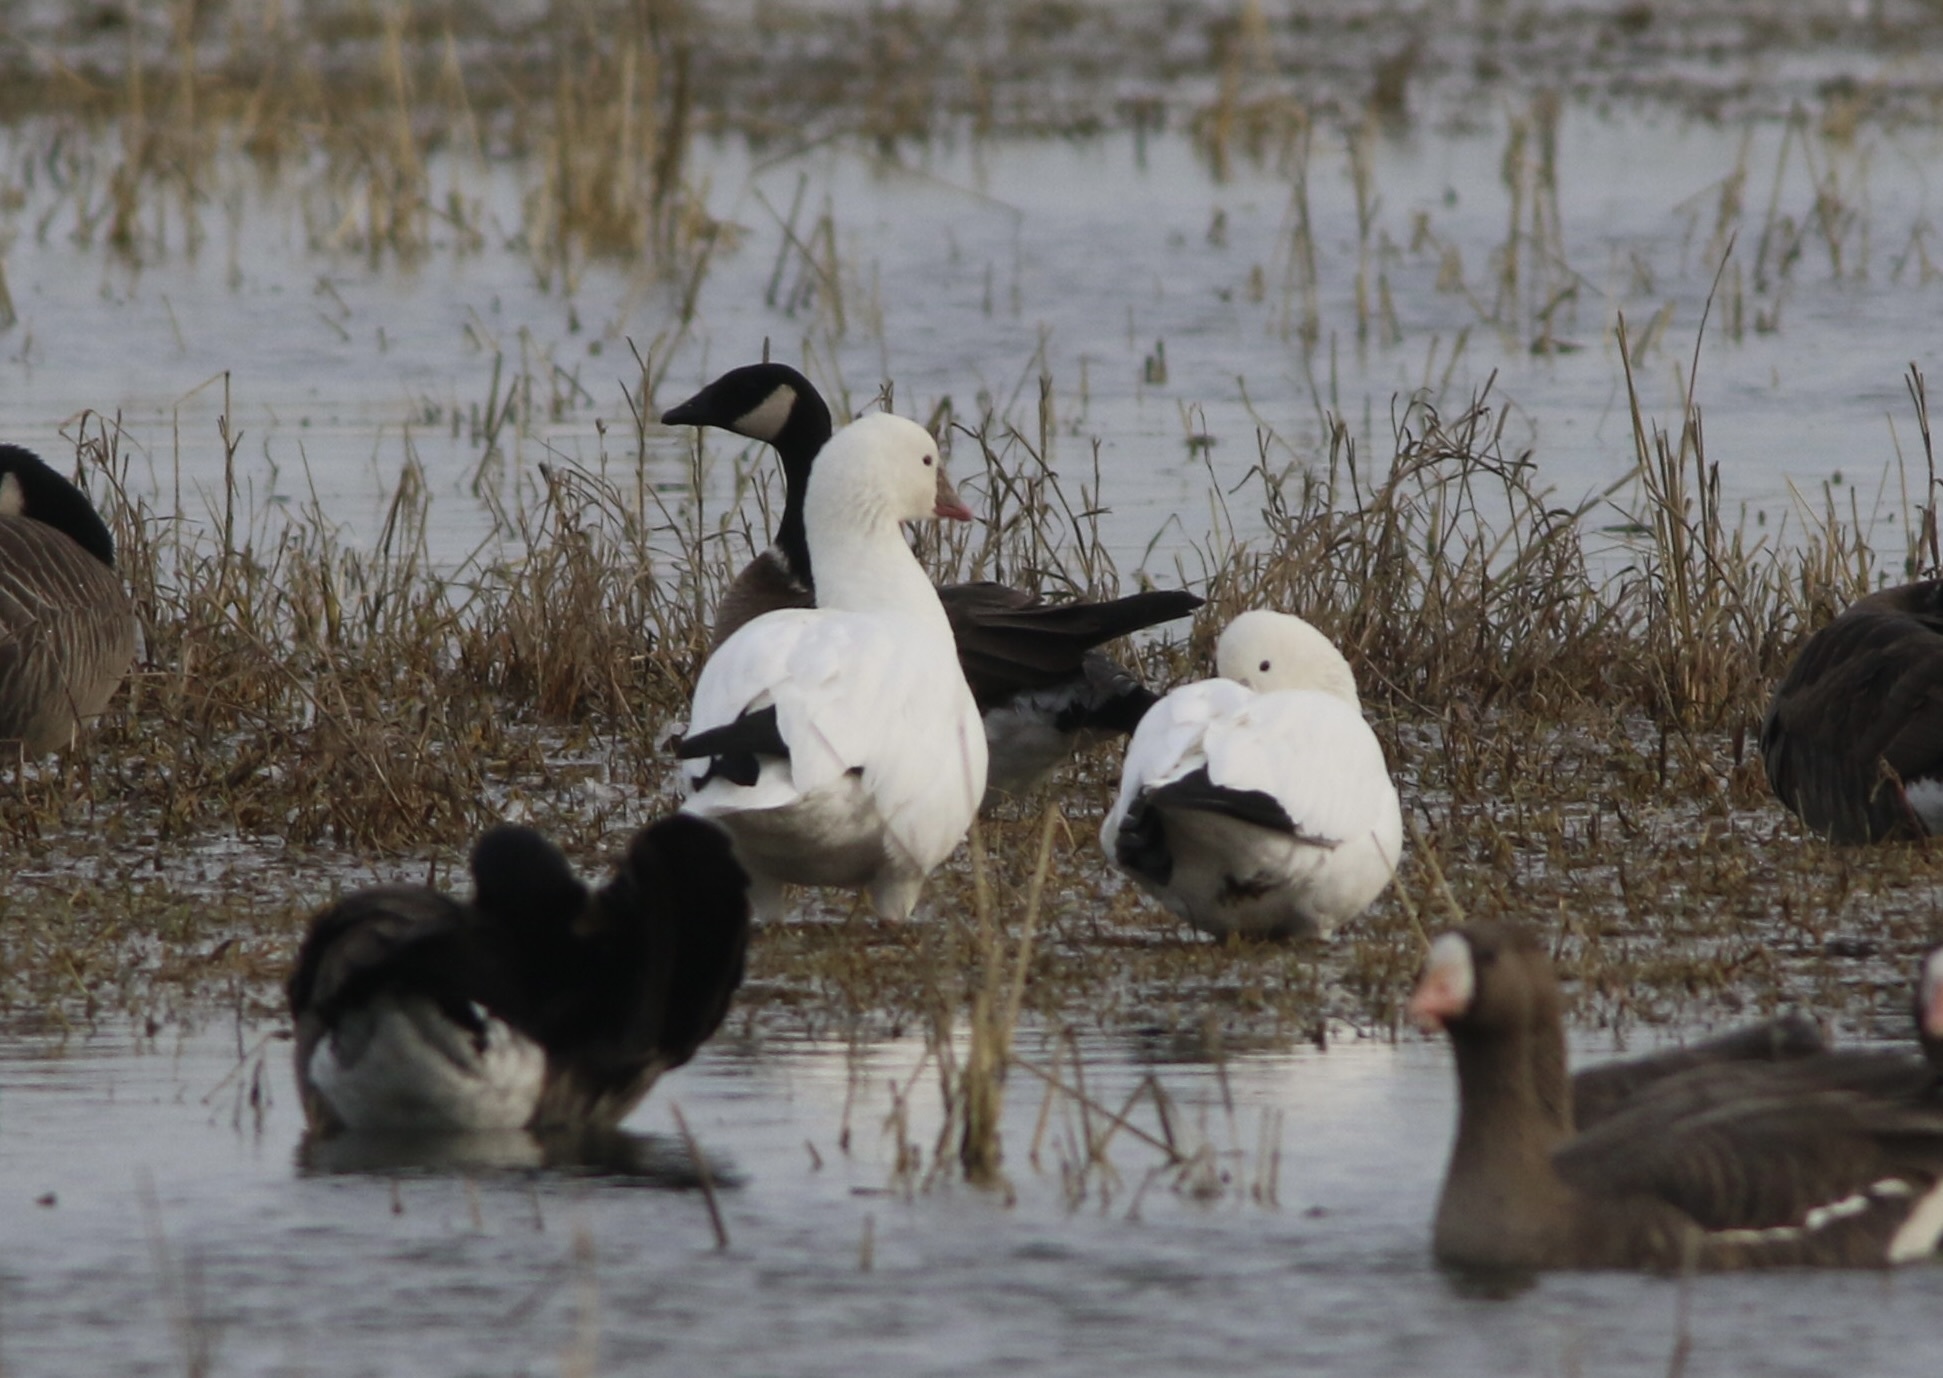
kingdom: Animalia
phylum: Chordata
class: Aves
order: Anseriformes
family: Anatidae
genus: Anser
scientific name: Anser rossii
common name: Ross's goose
